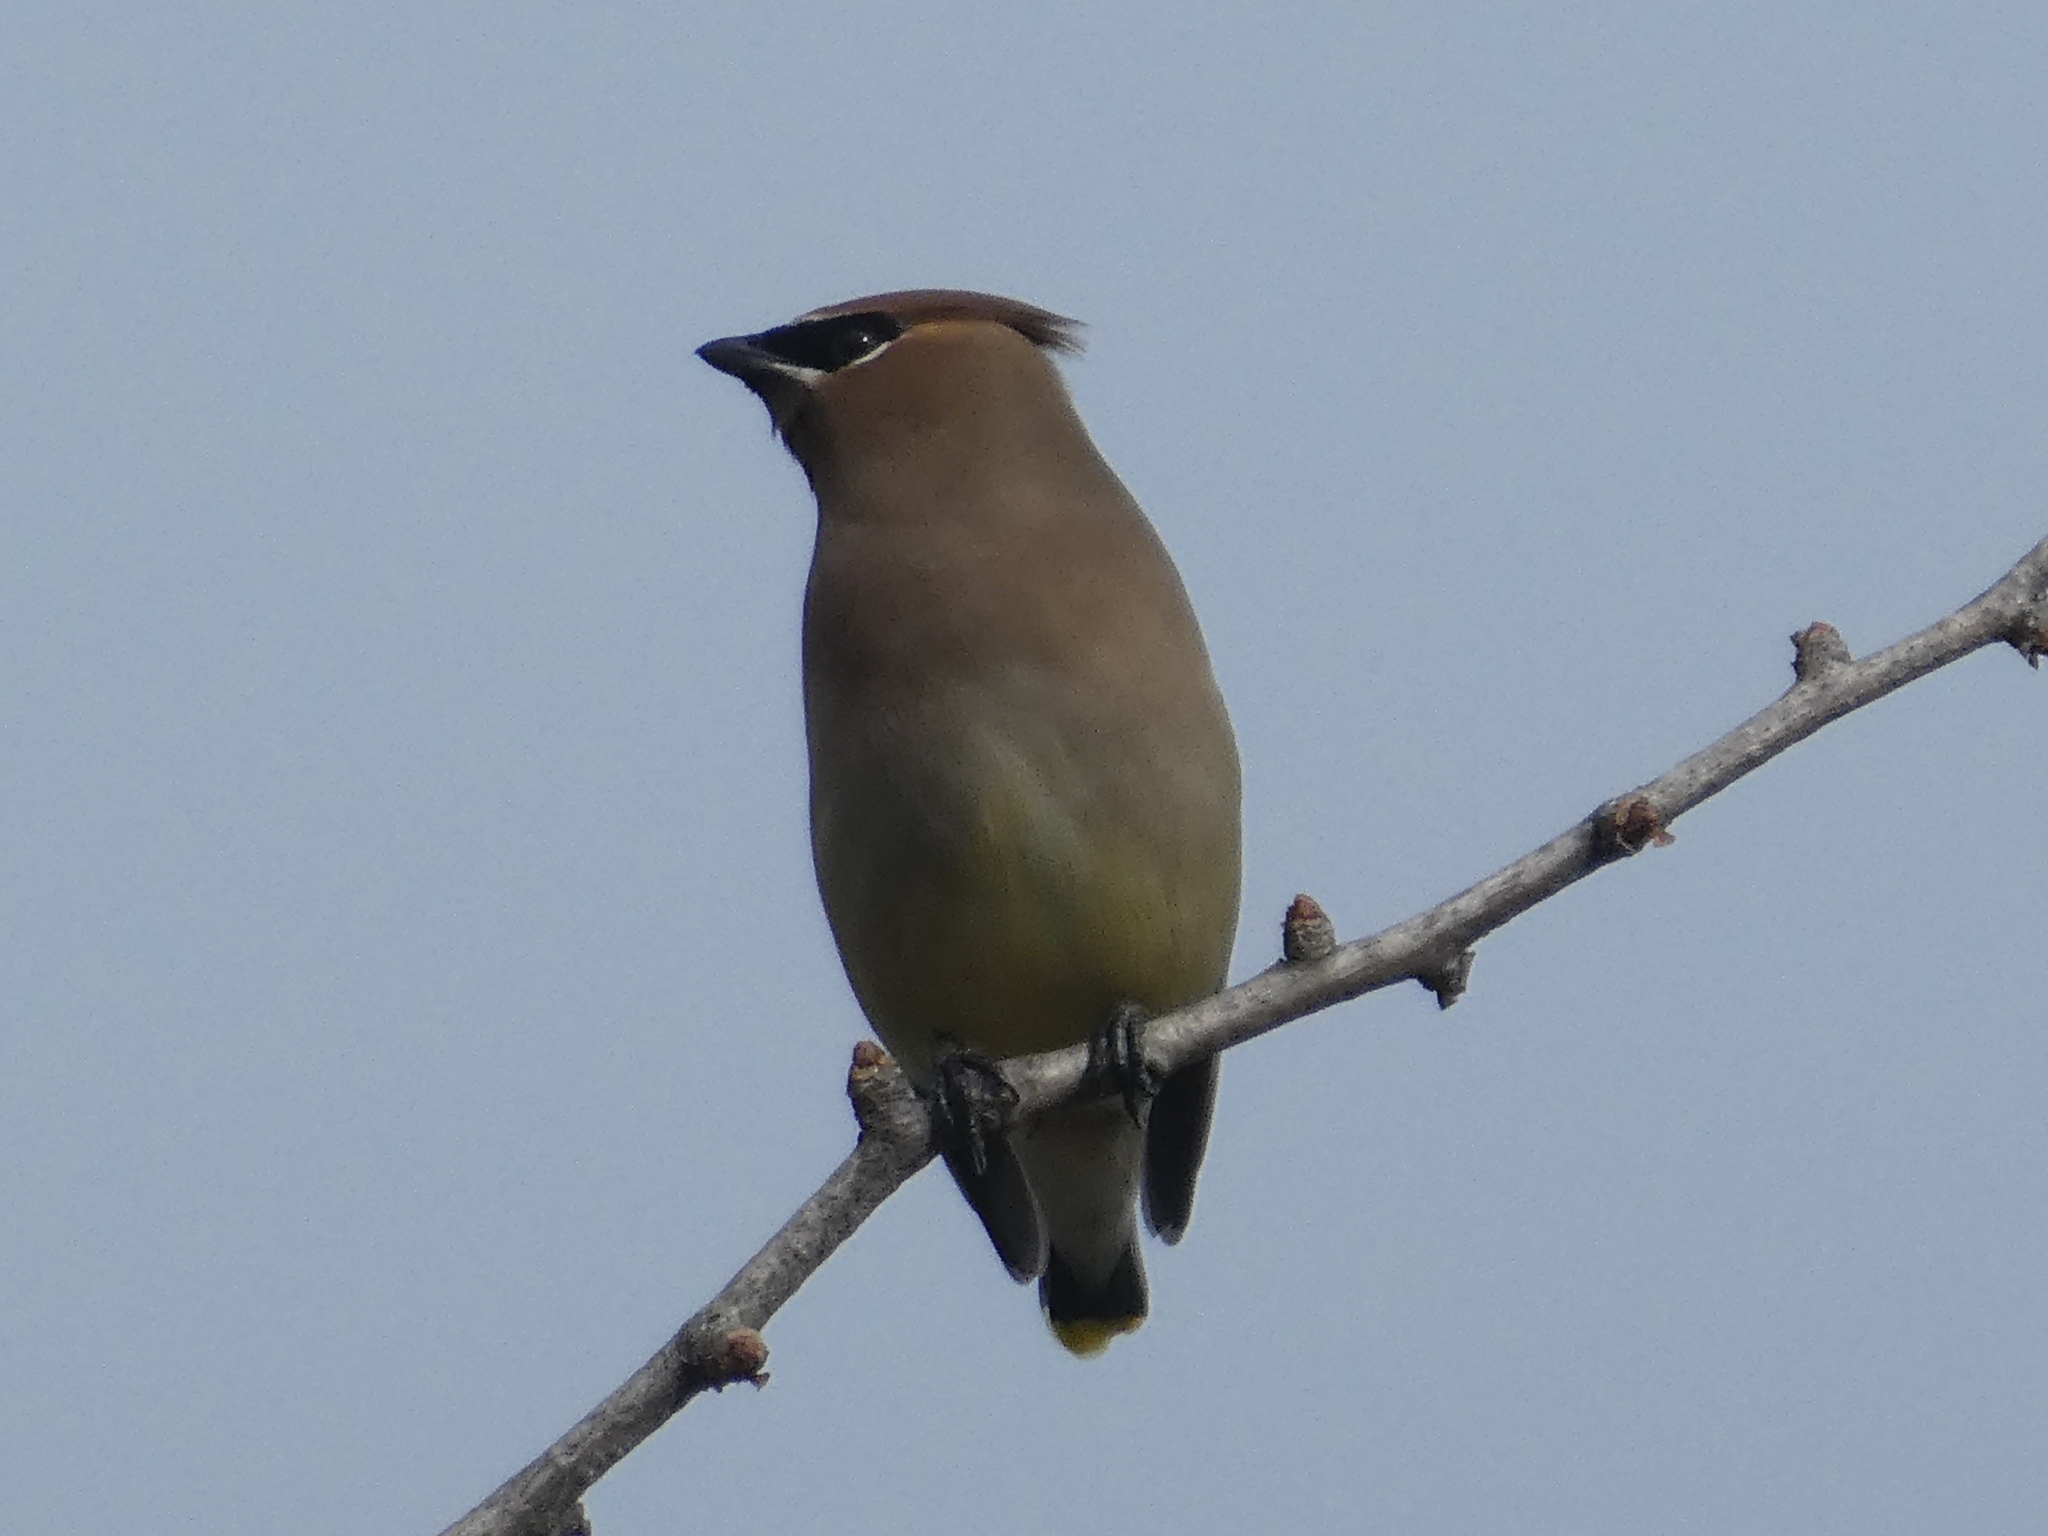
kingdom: Animalia
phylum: Chordata
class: Aves
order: Passeriformes
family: Bombycillidae
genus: Bombycilla
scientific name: Bombycilla cedrorum
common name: Cedar waxwing
